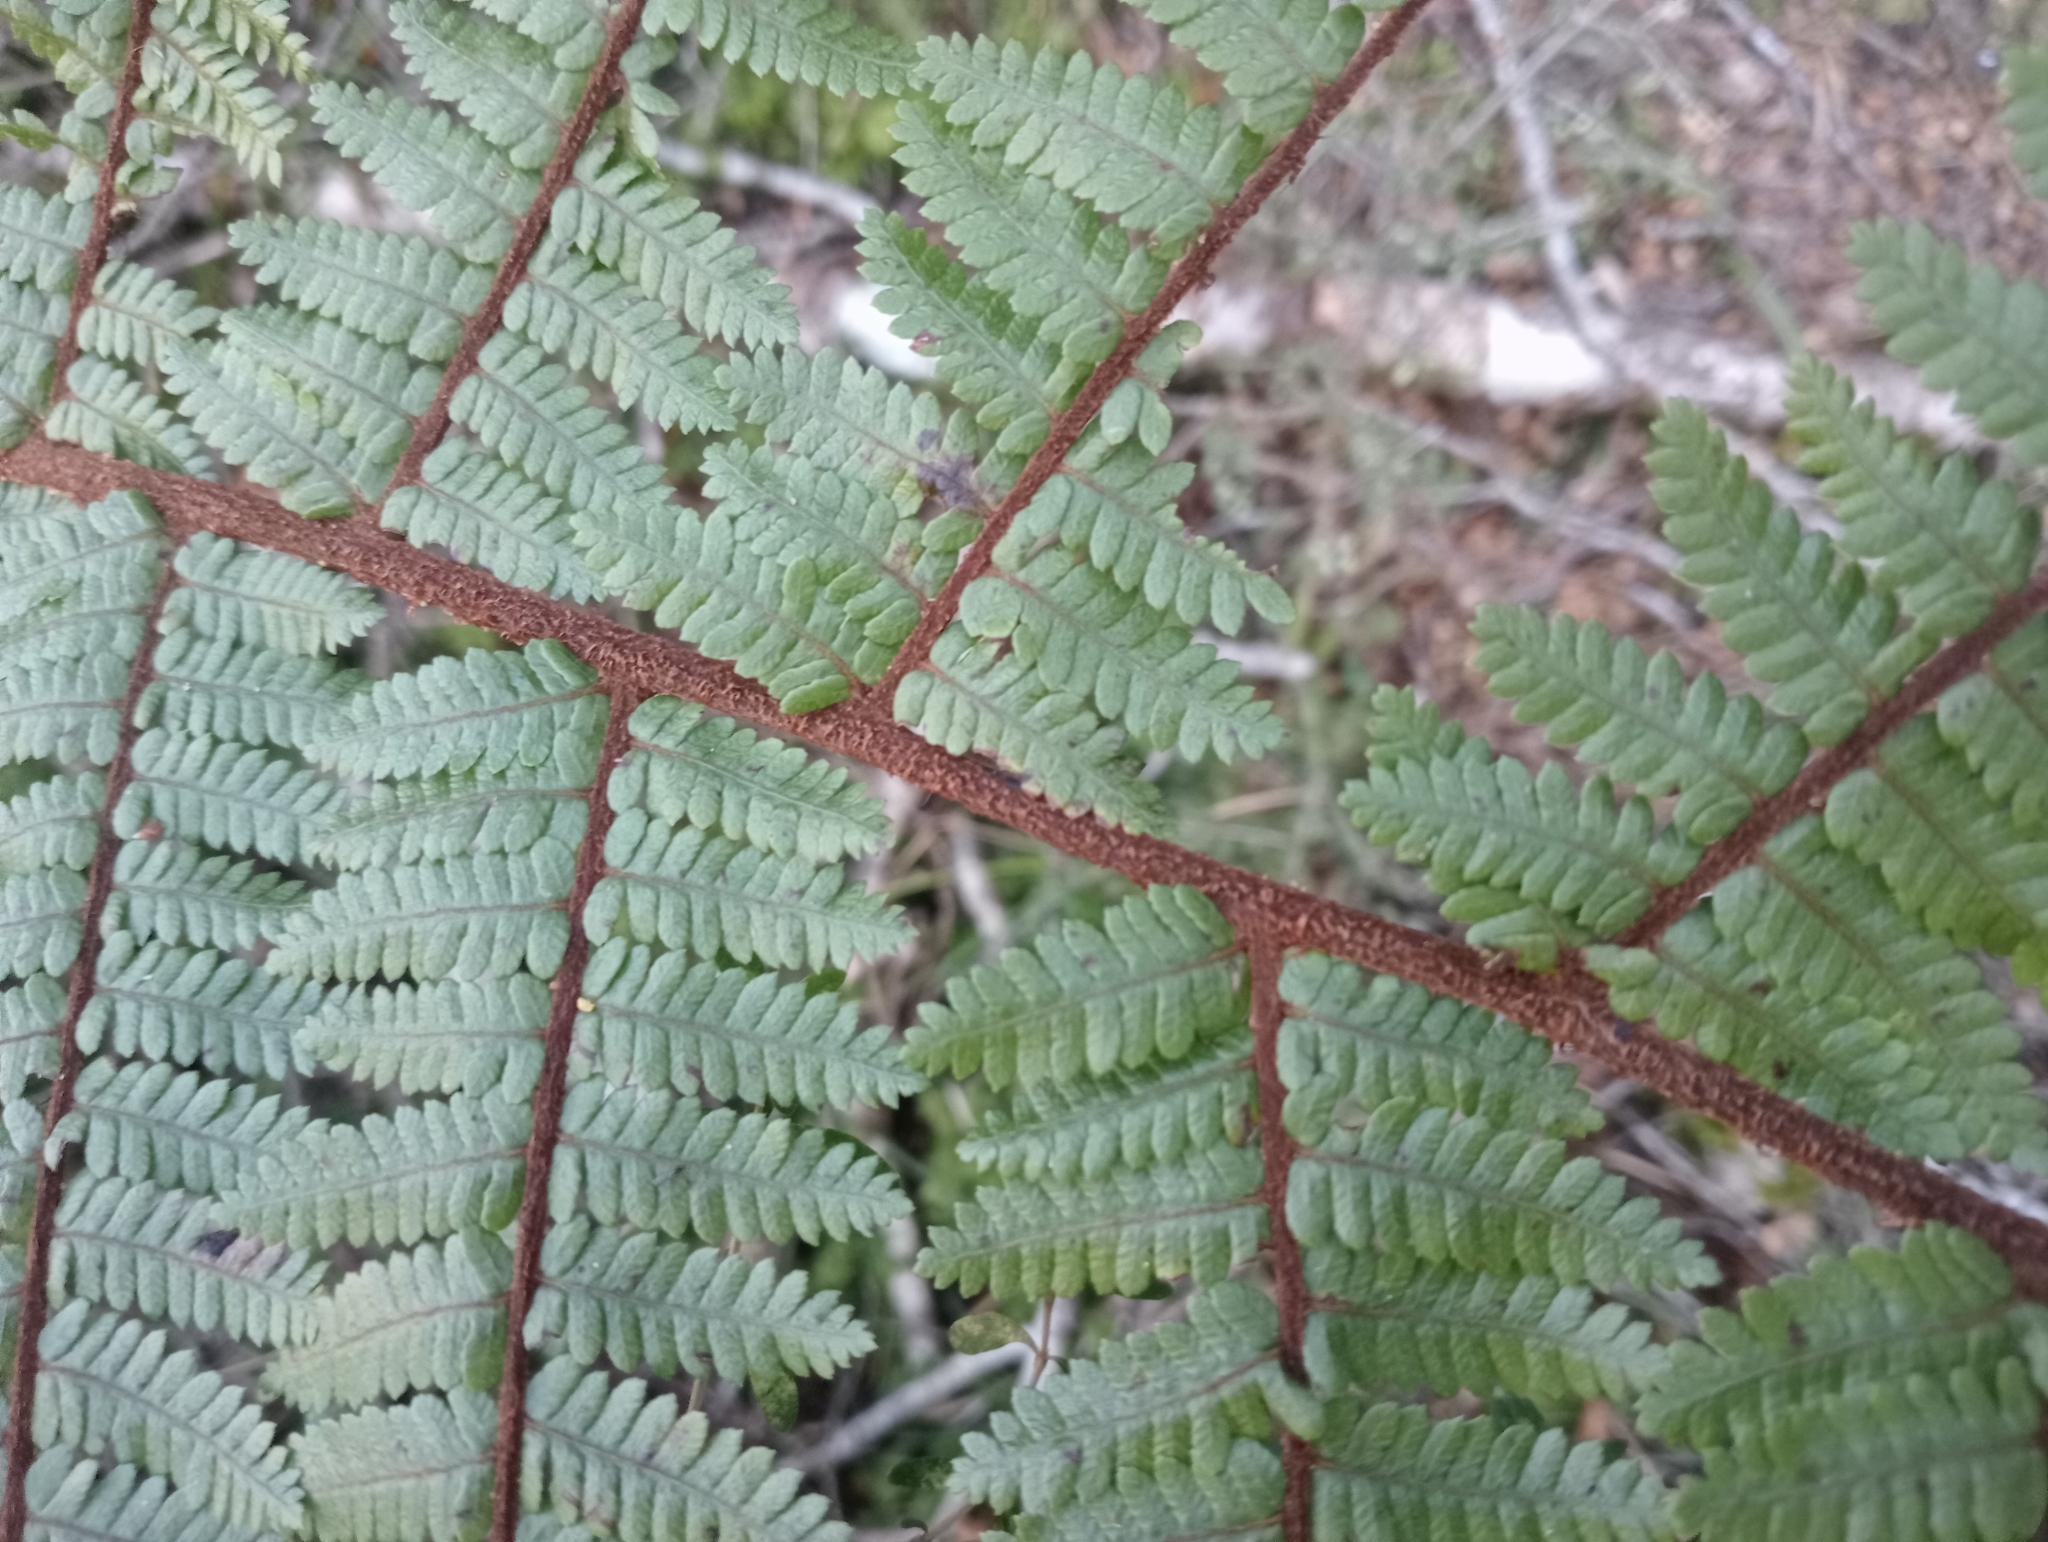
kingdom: Plantae
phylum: Tracheophyta
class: Polypodiopsida
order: Cyatheales
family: Cyatheaceae
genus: Alsophila
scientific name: Alsophila colensoi
